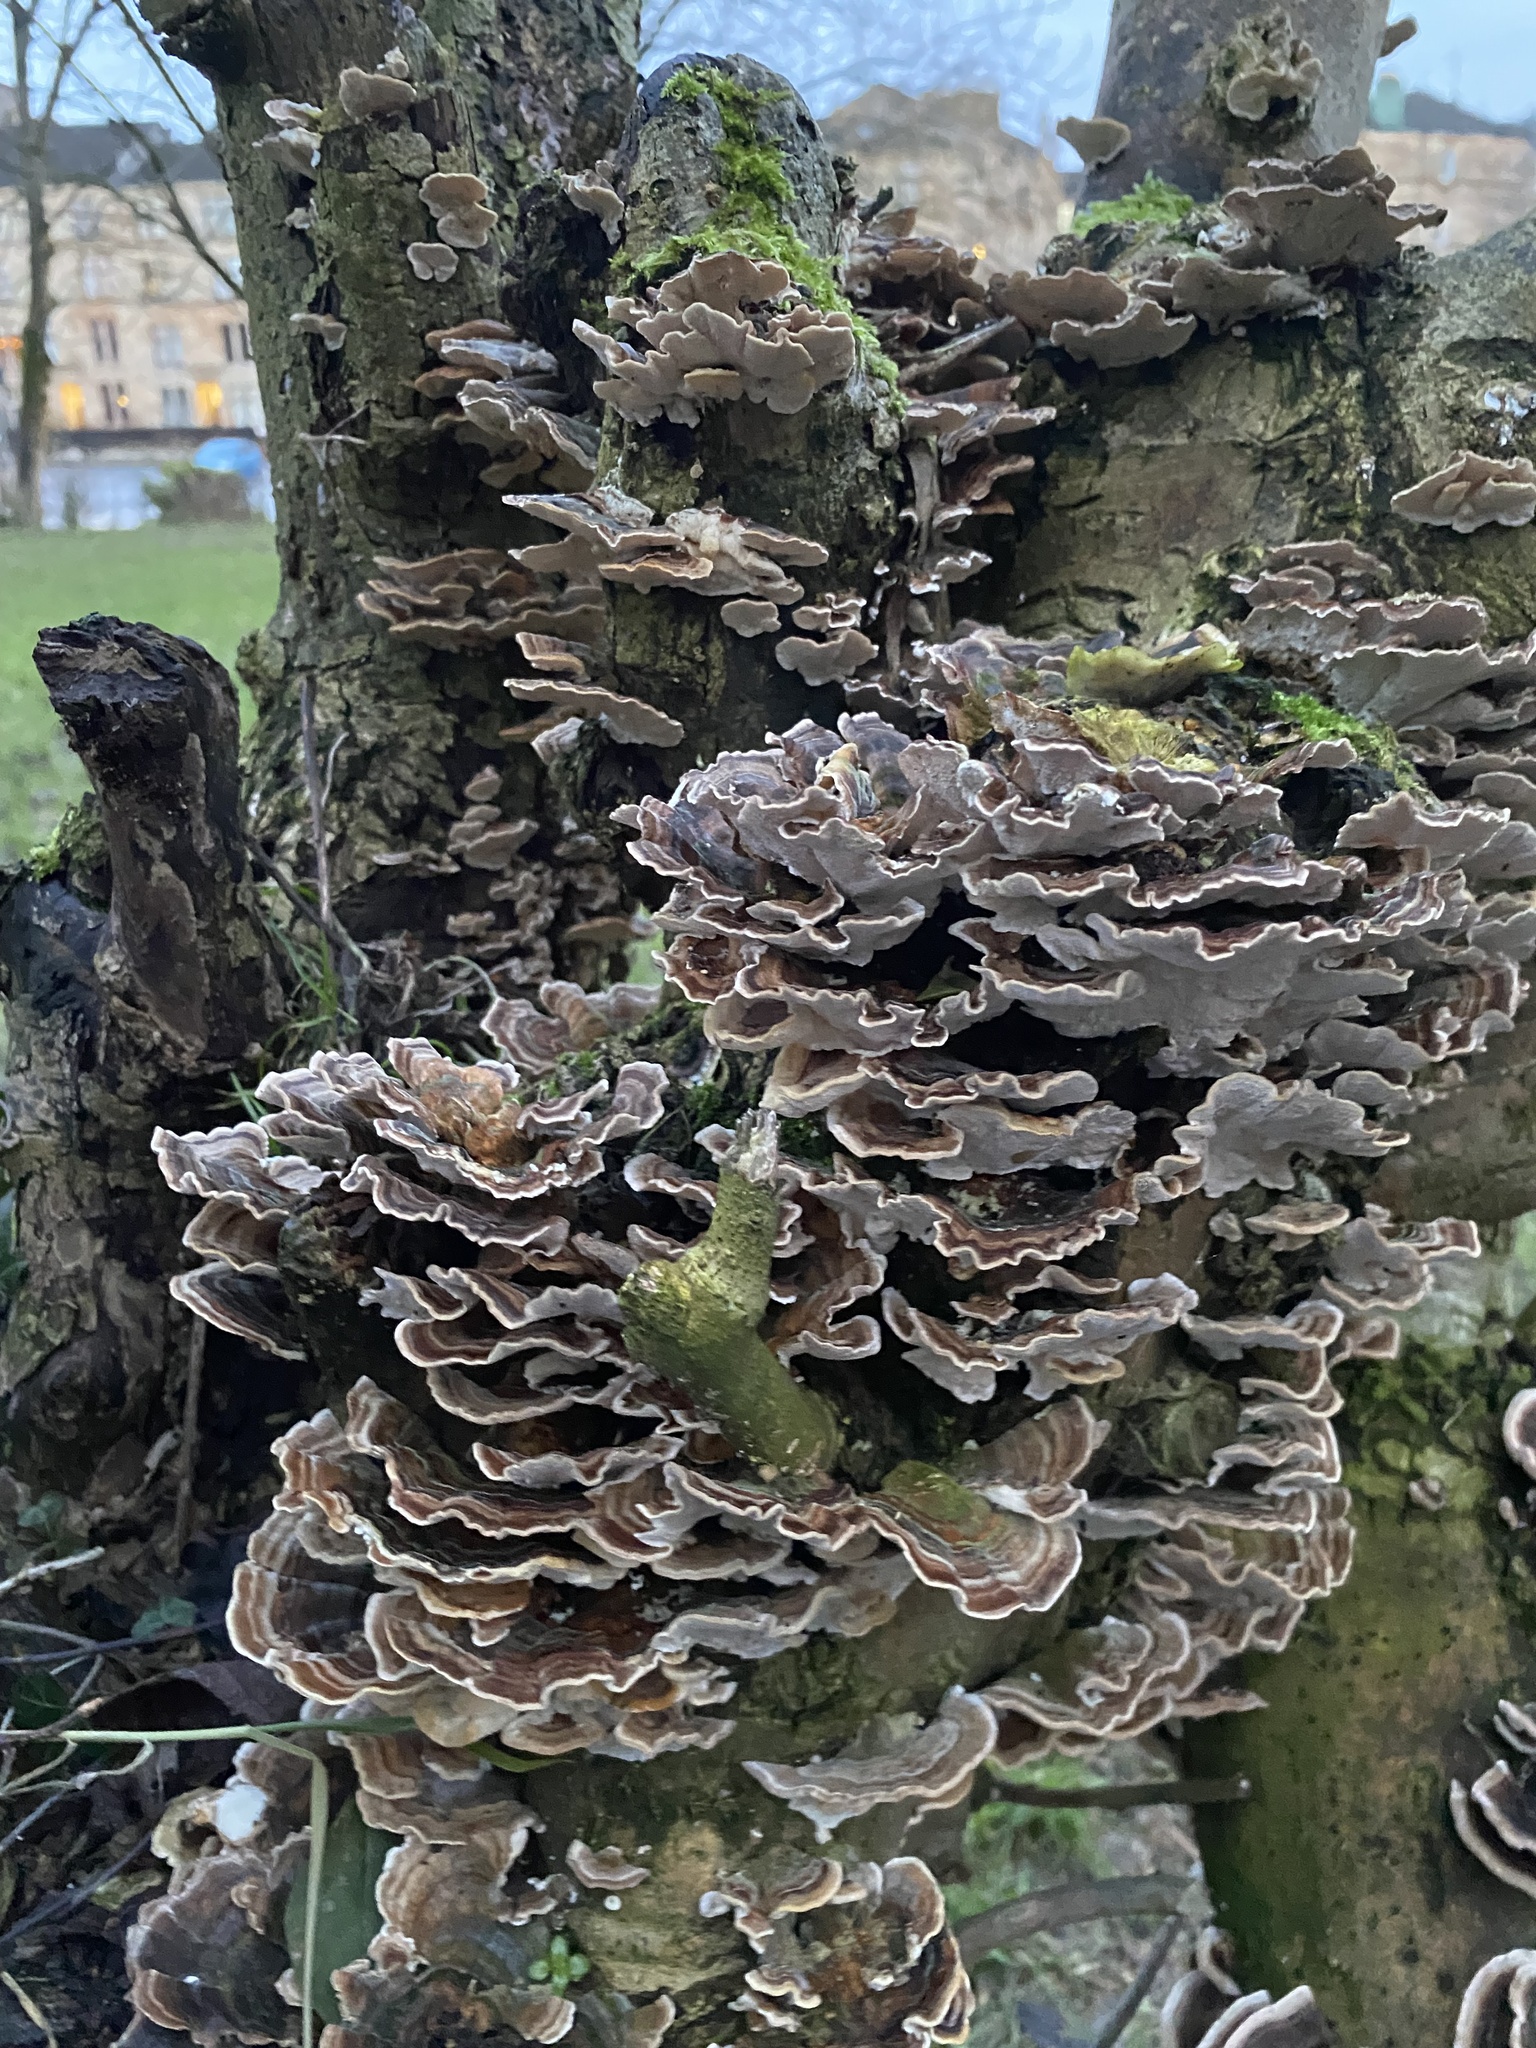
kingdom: Fungi
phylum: Basidiomycota
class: Agaricomycetes
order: Polyporales
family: Polyporaceae
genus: Trametes
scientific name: Trametes versicolor
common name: Turkeytail
